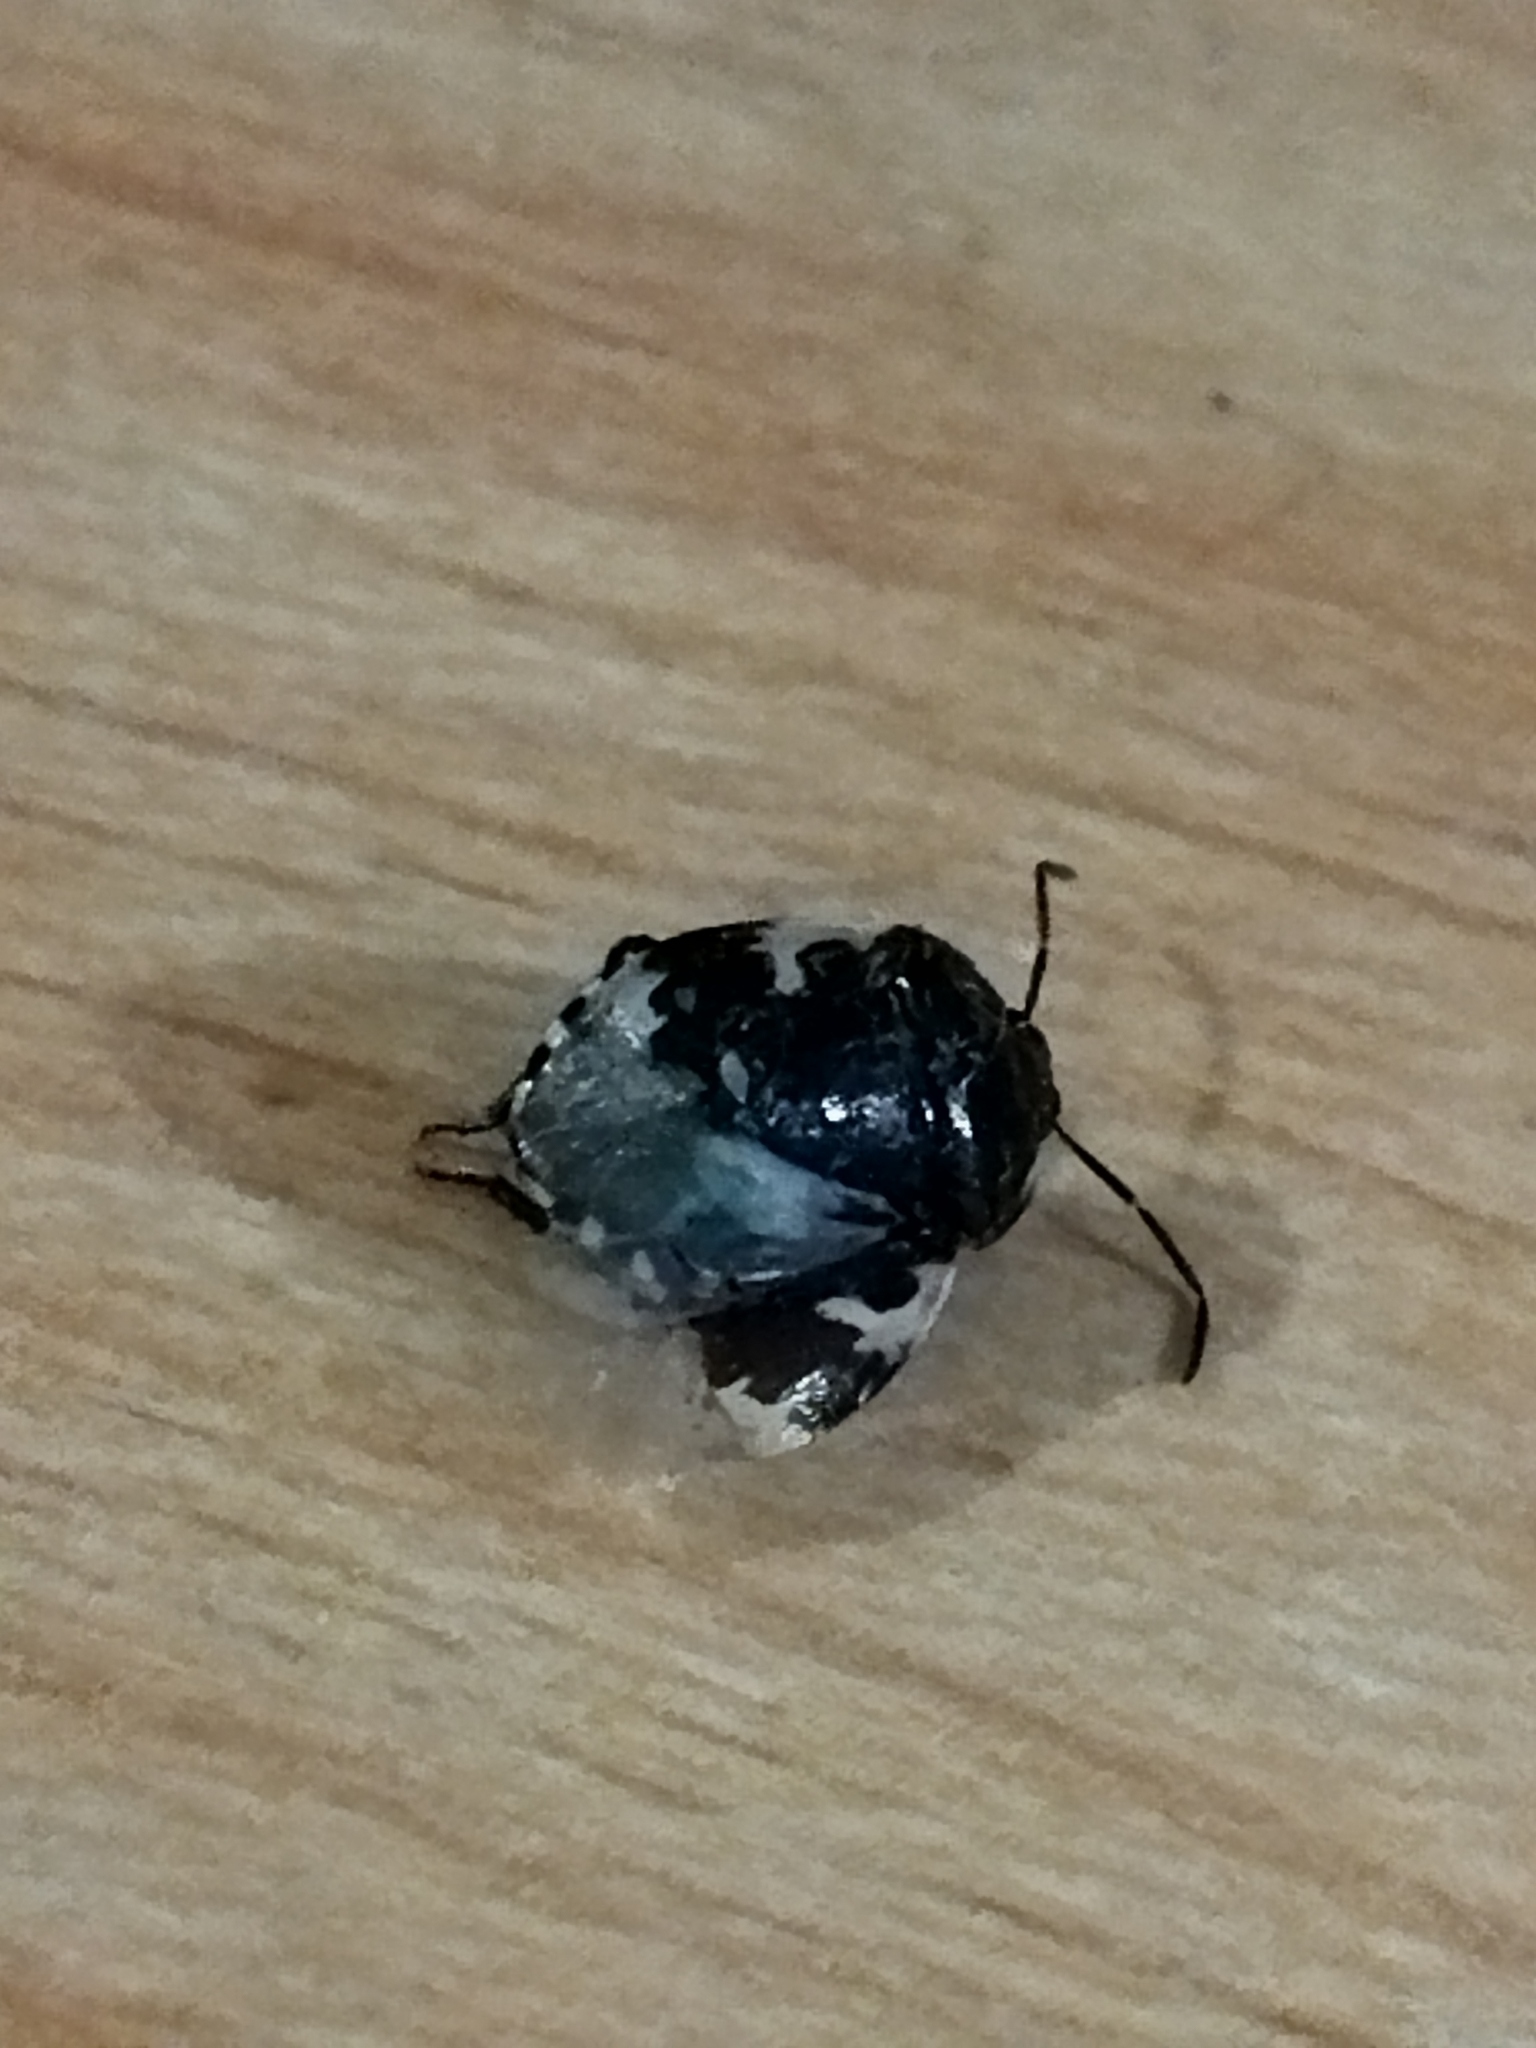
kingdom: Animalia
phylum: Arthropoda
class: Insecta
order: Hemiptera
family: Cydnidae
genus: Tritomegas
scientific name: Tritomegas bicolor
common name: Pied shieldbug
